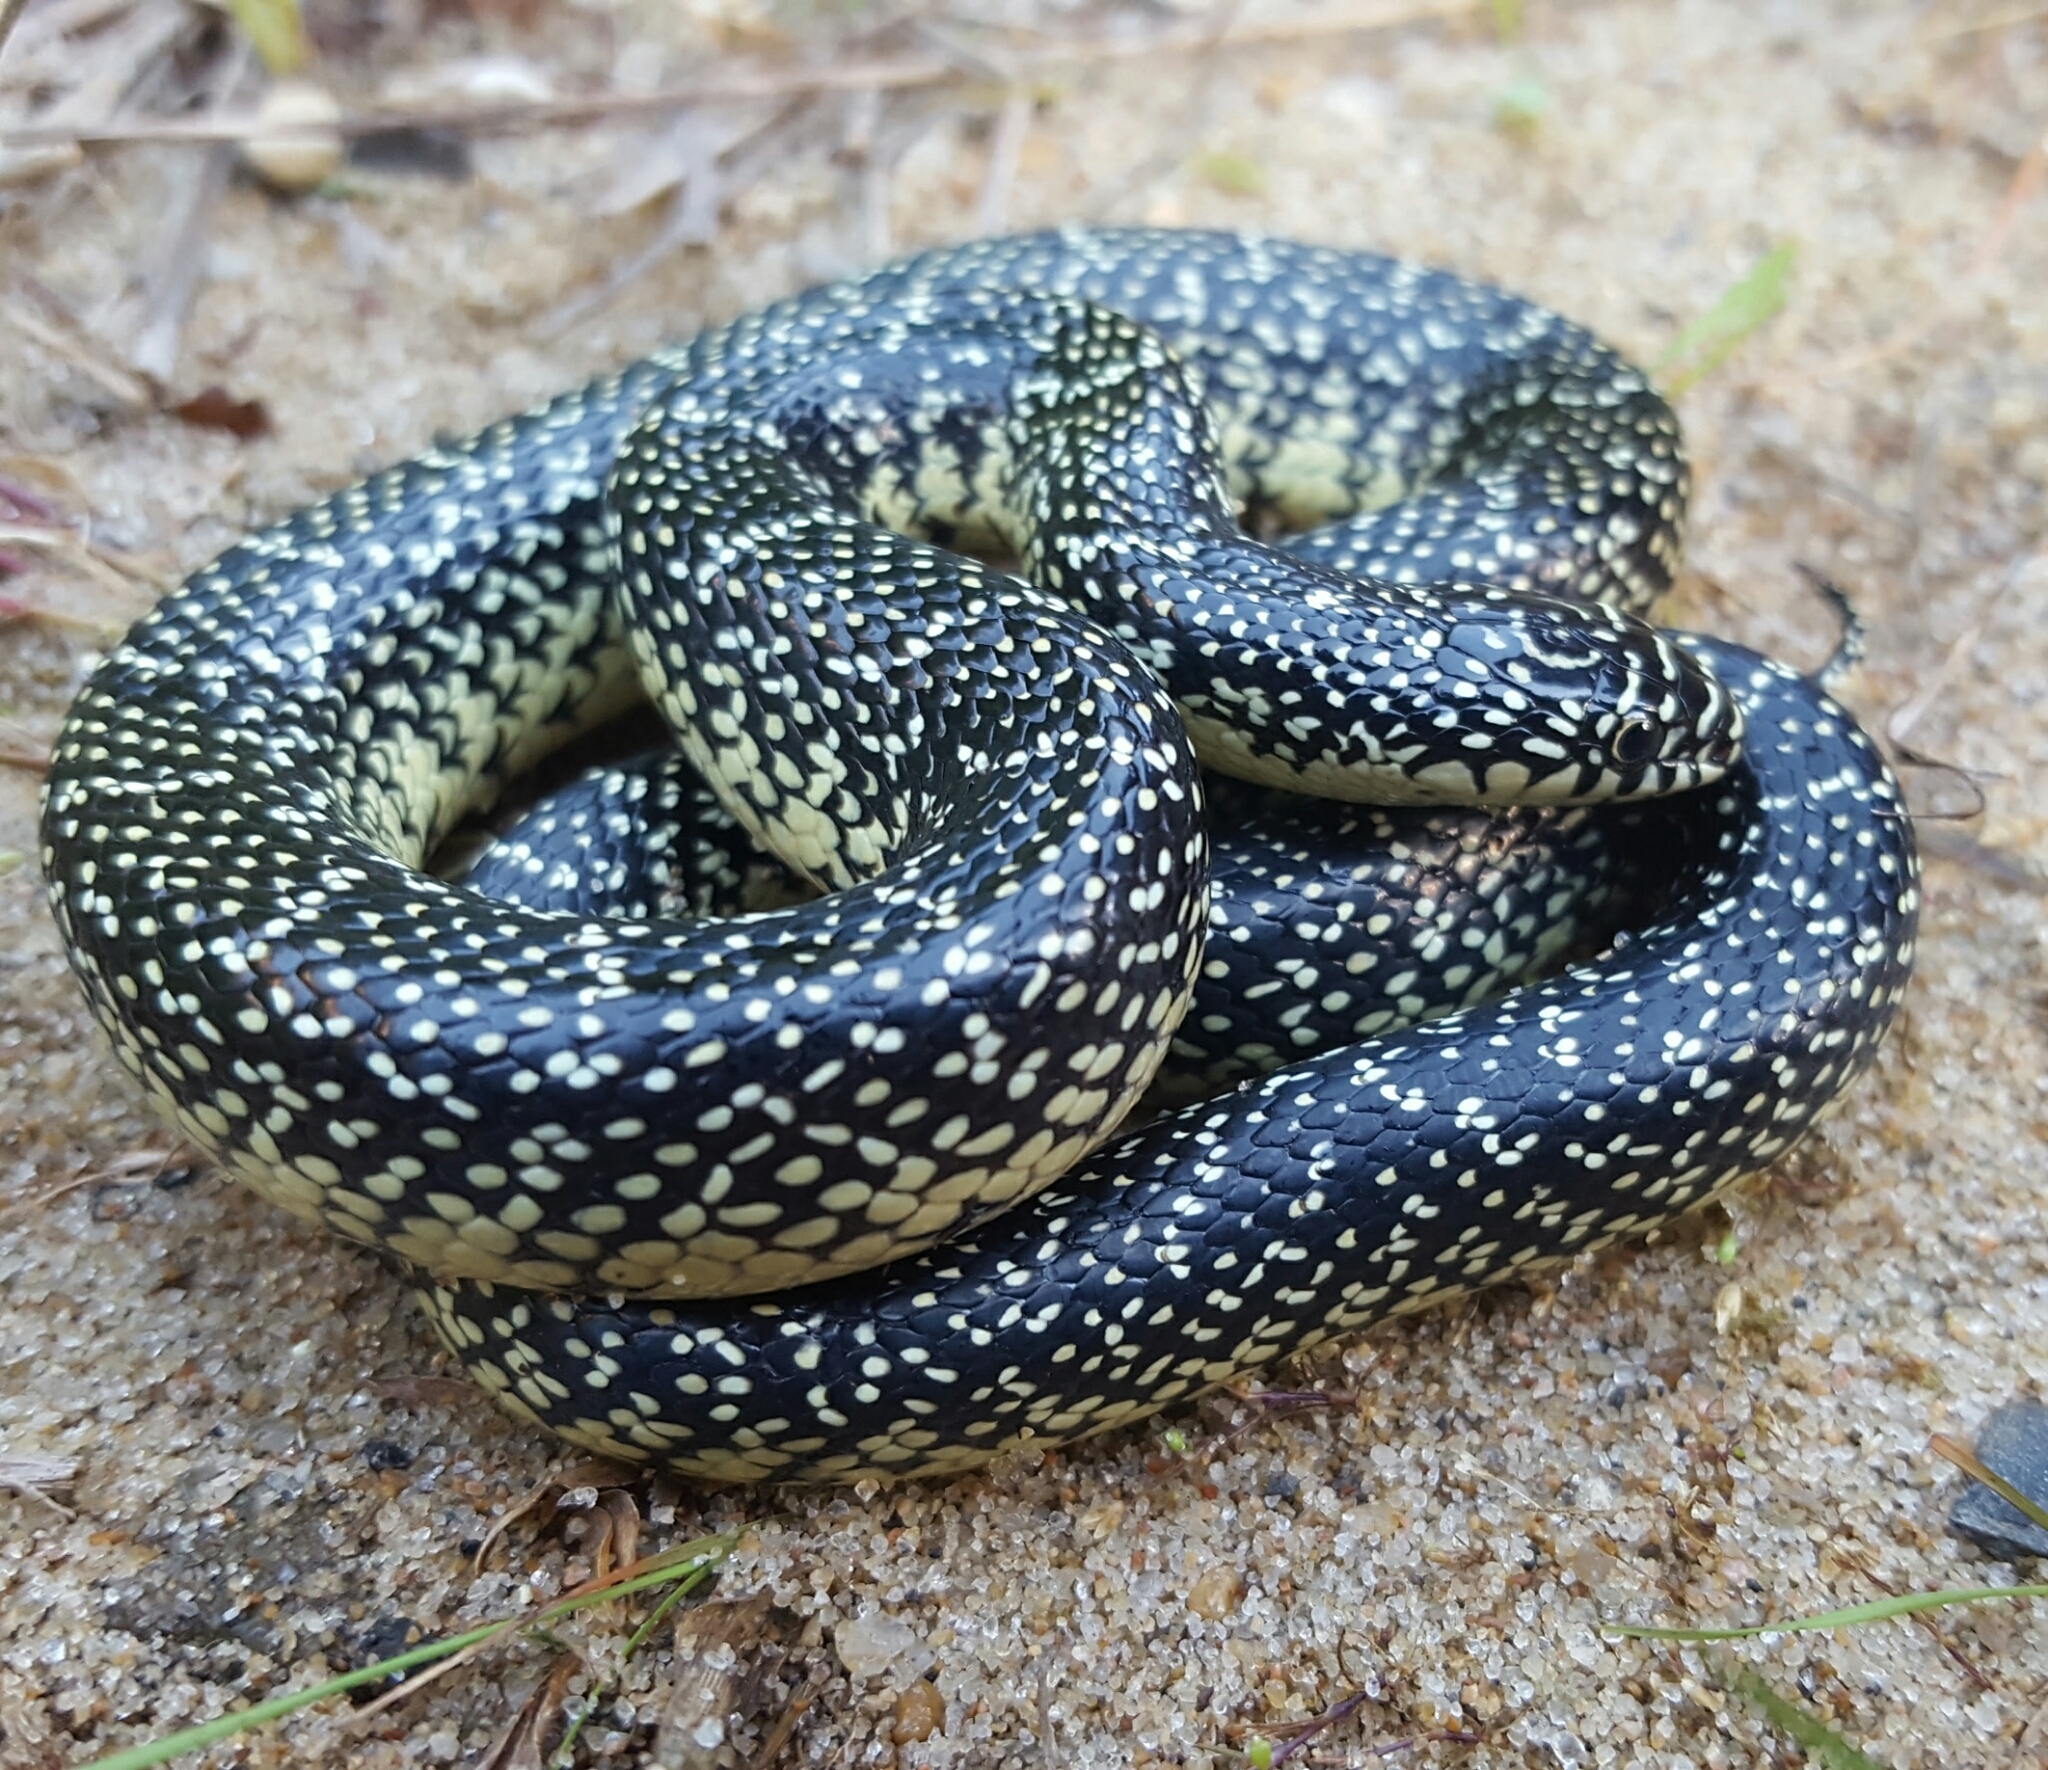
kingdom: Animalia
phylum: Chordata
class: Squamata
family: Colubridae
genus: Lampropeltis
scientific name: Lampropeltis holbrooki
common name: Speckled kingsnake
